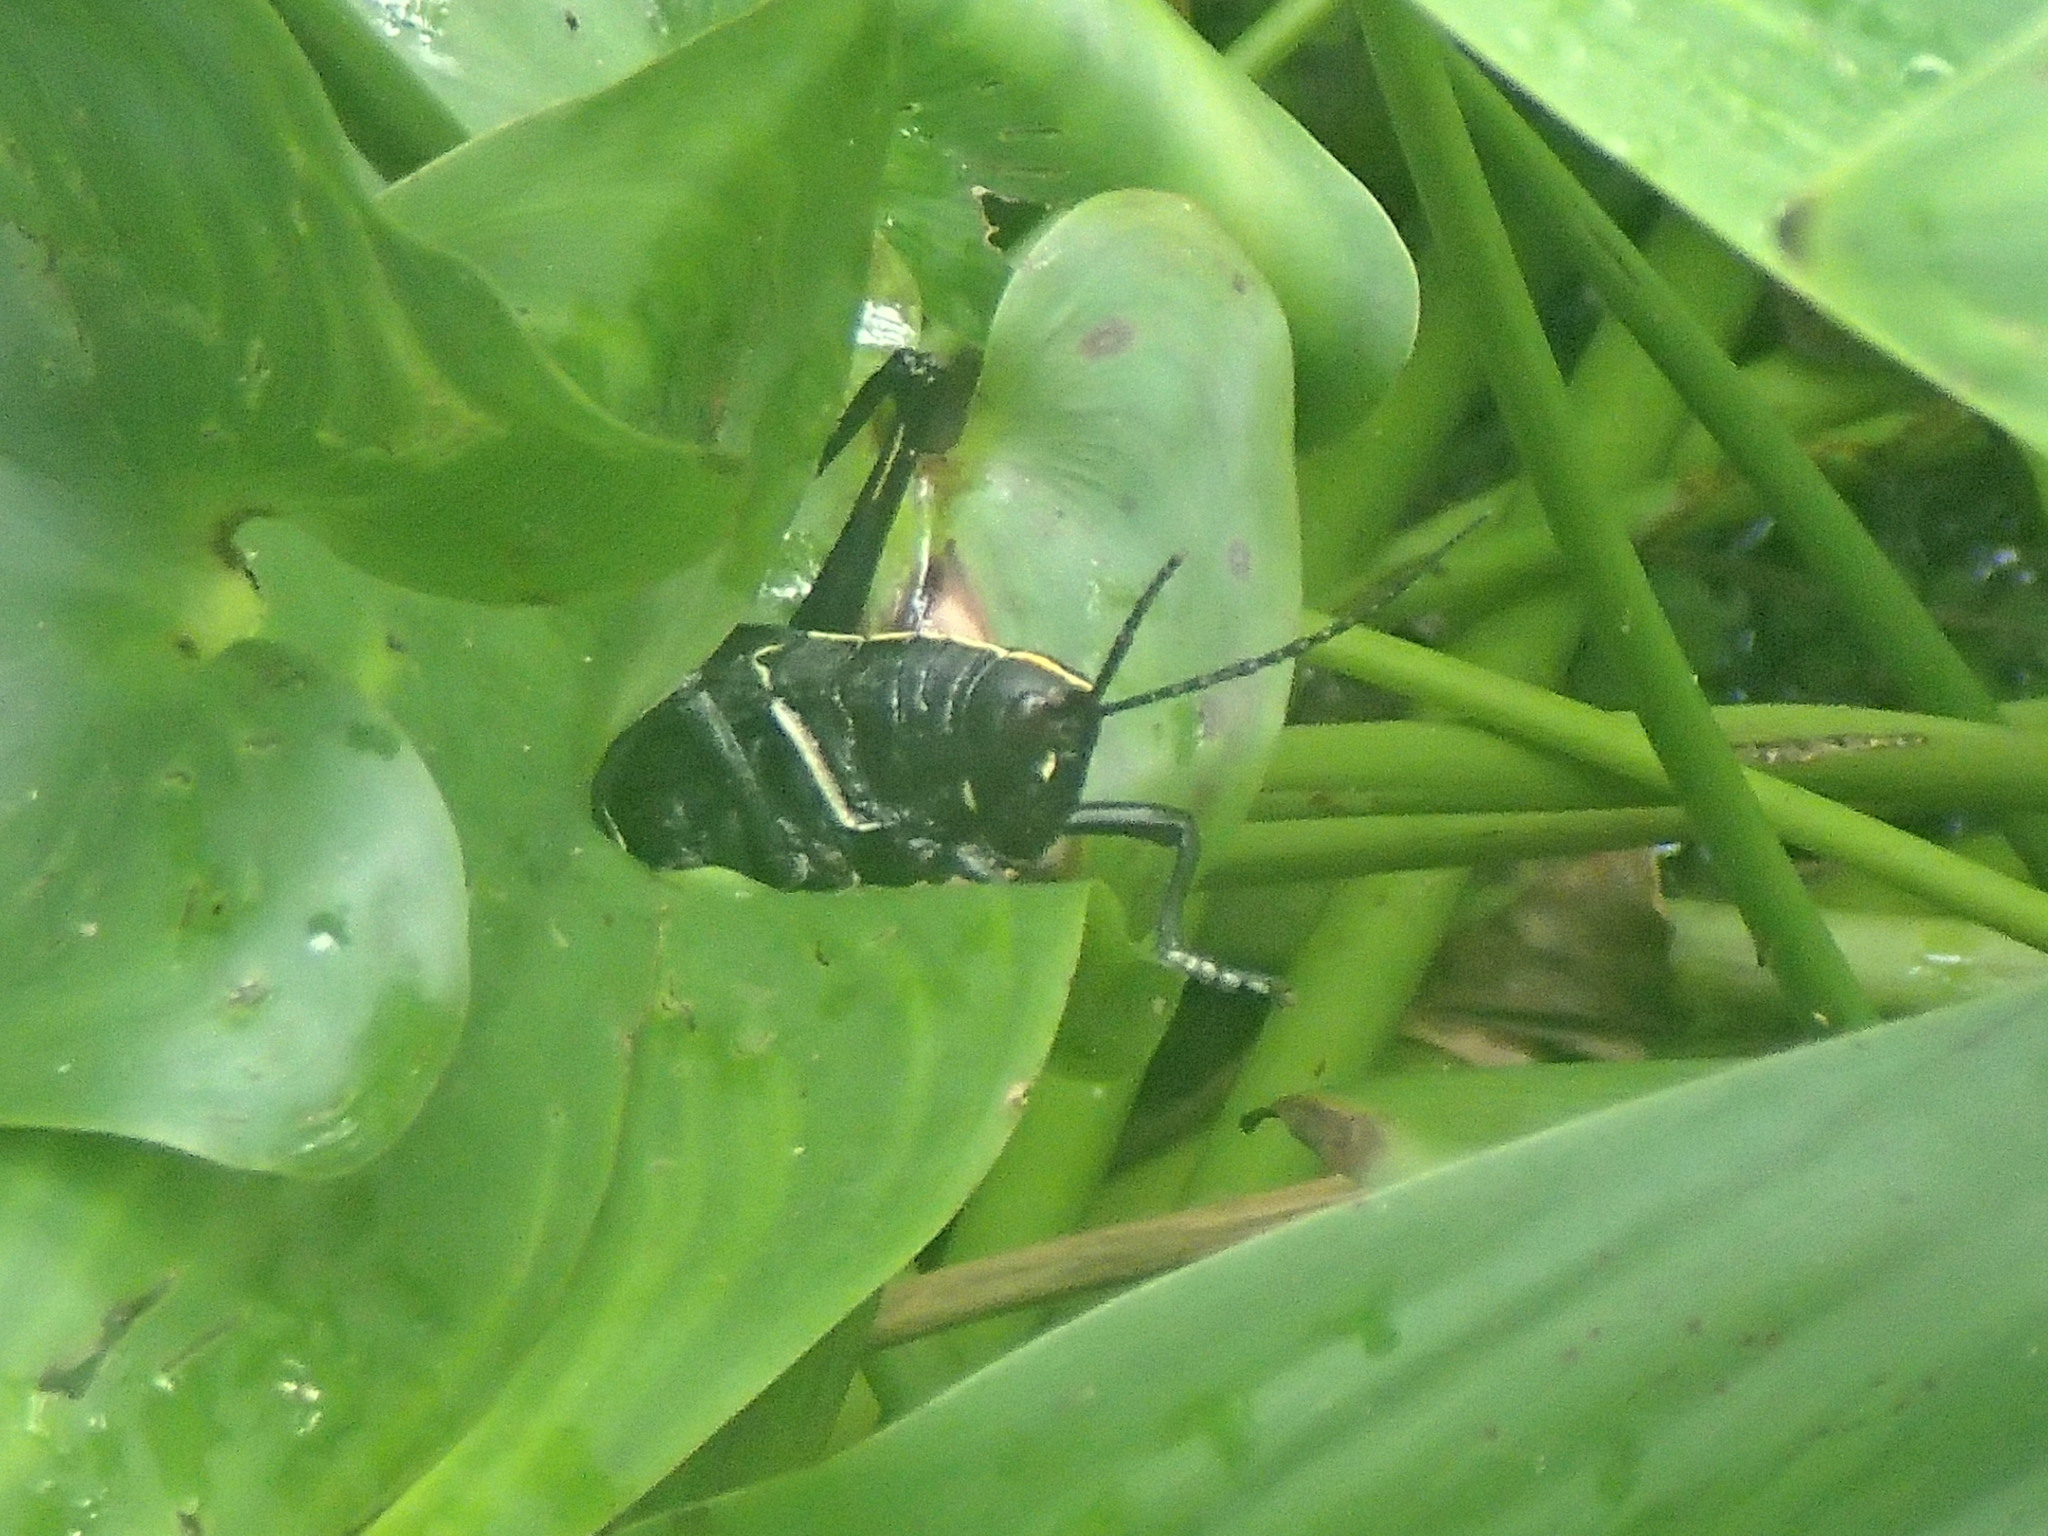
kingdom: Animalia
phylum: Arthropoda
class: Insecta
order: Orthoptera
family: Romaleidae
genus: Romalea
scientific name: Romalea microptera
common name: Eastern lubber grasshopper
